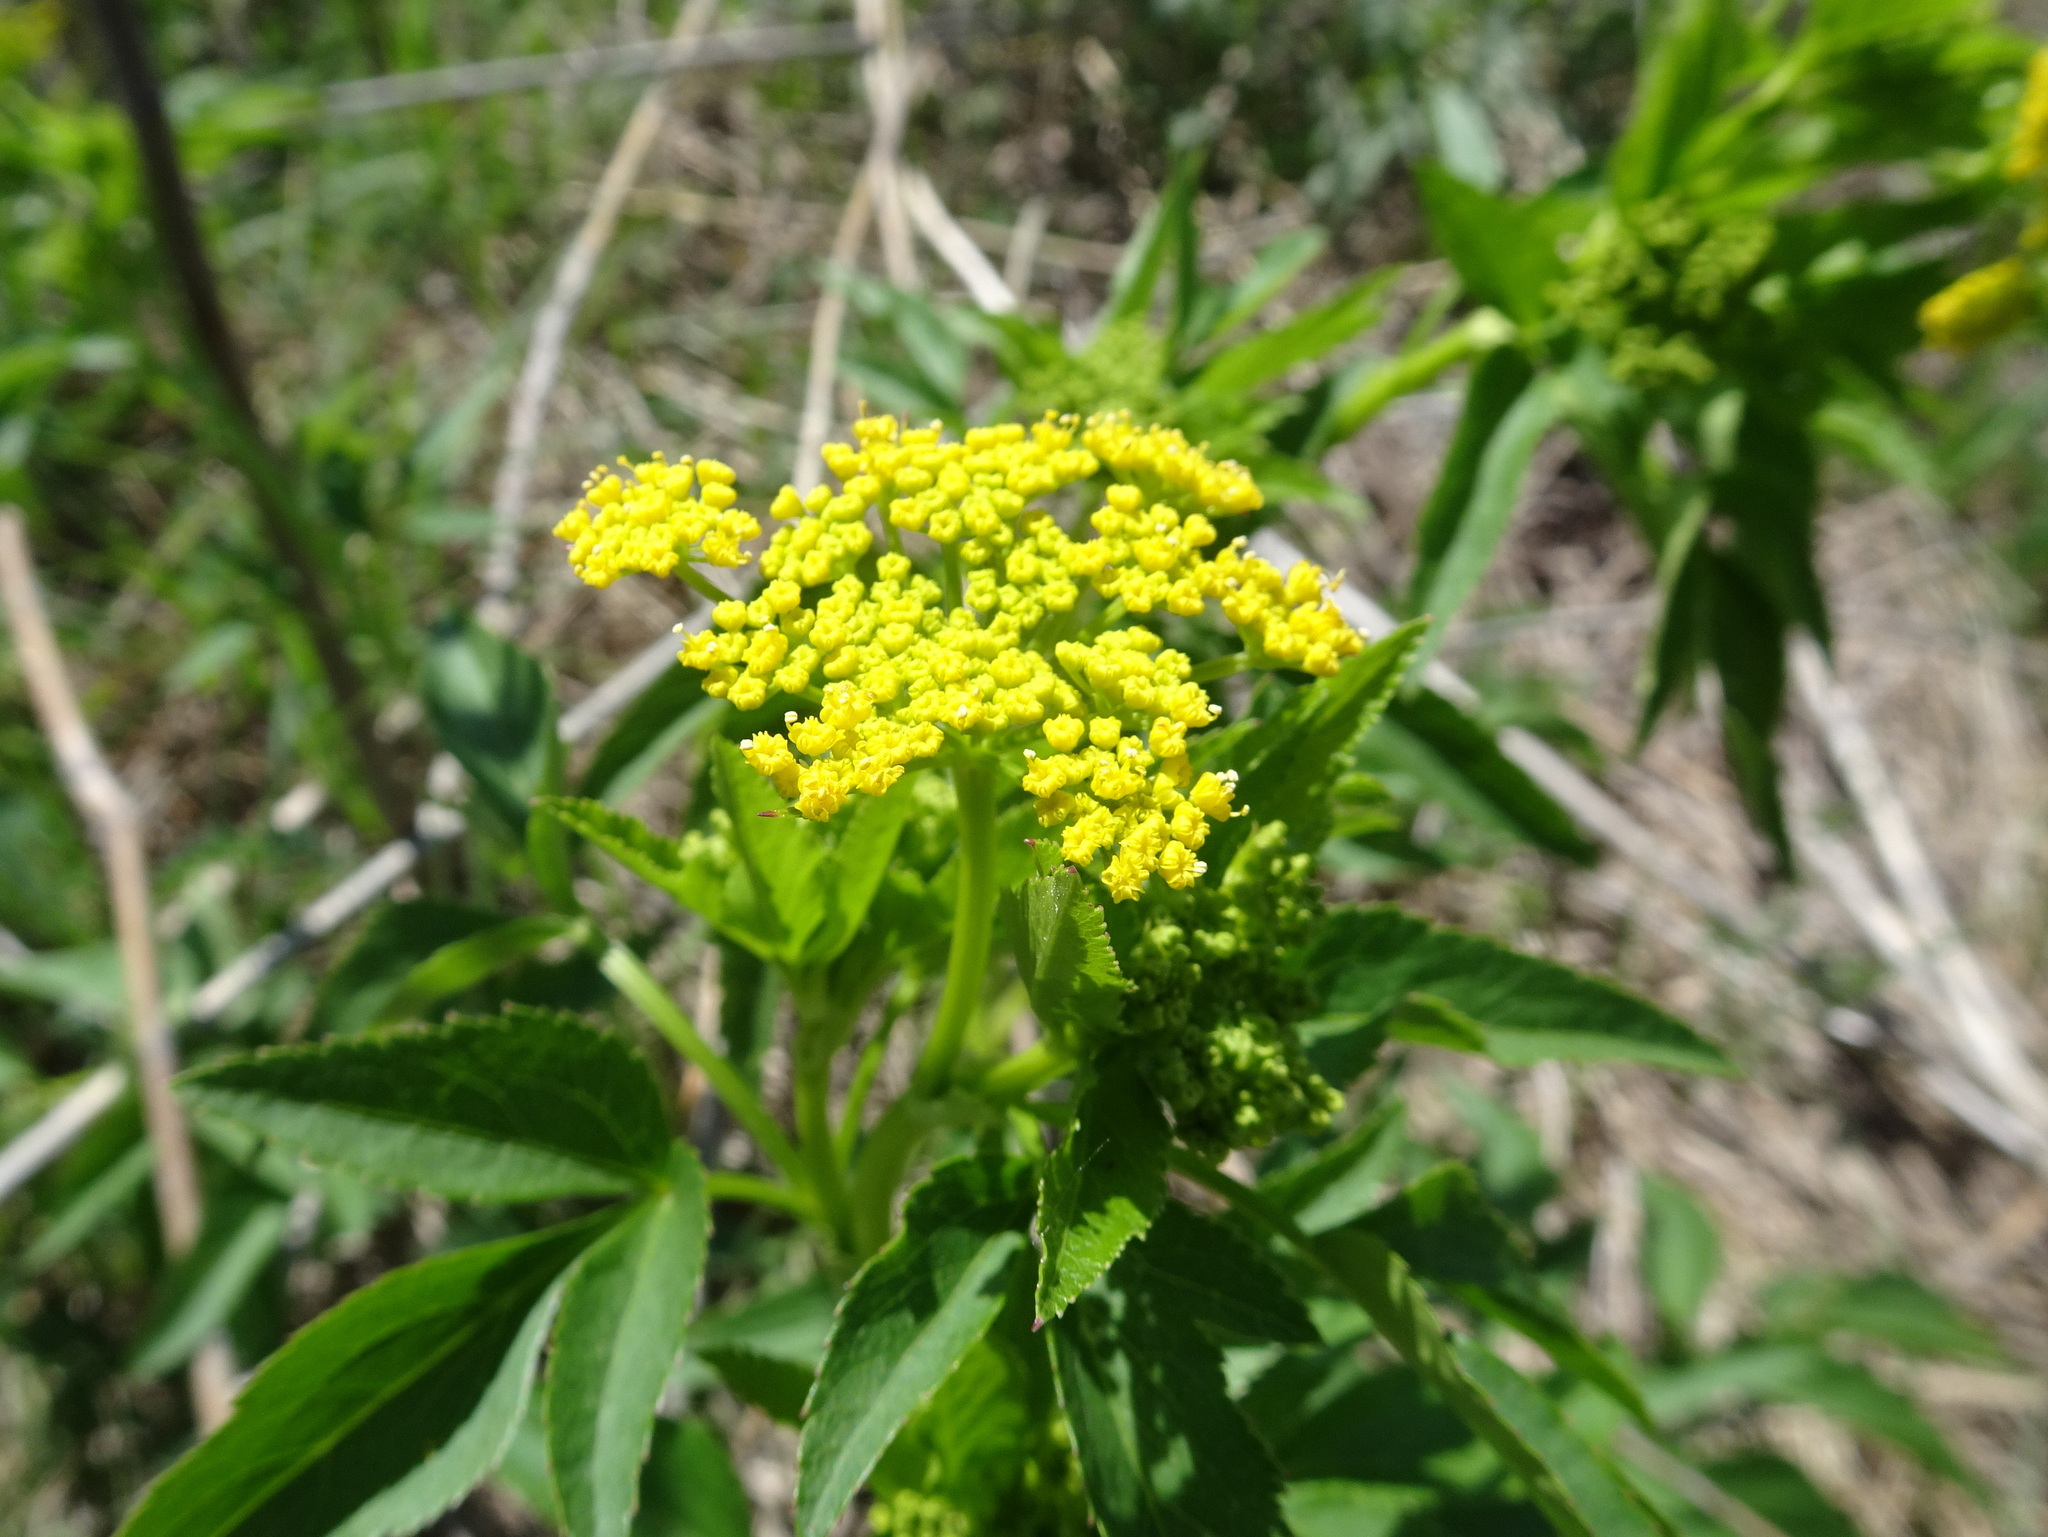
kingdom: Plantae
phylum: Tracheophyta
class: Magnoliopsida
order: Apiales
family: Apiaceae
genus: Zizia
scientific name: Zizia aurea
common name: Golden alexanders
